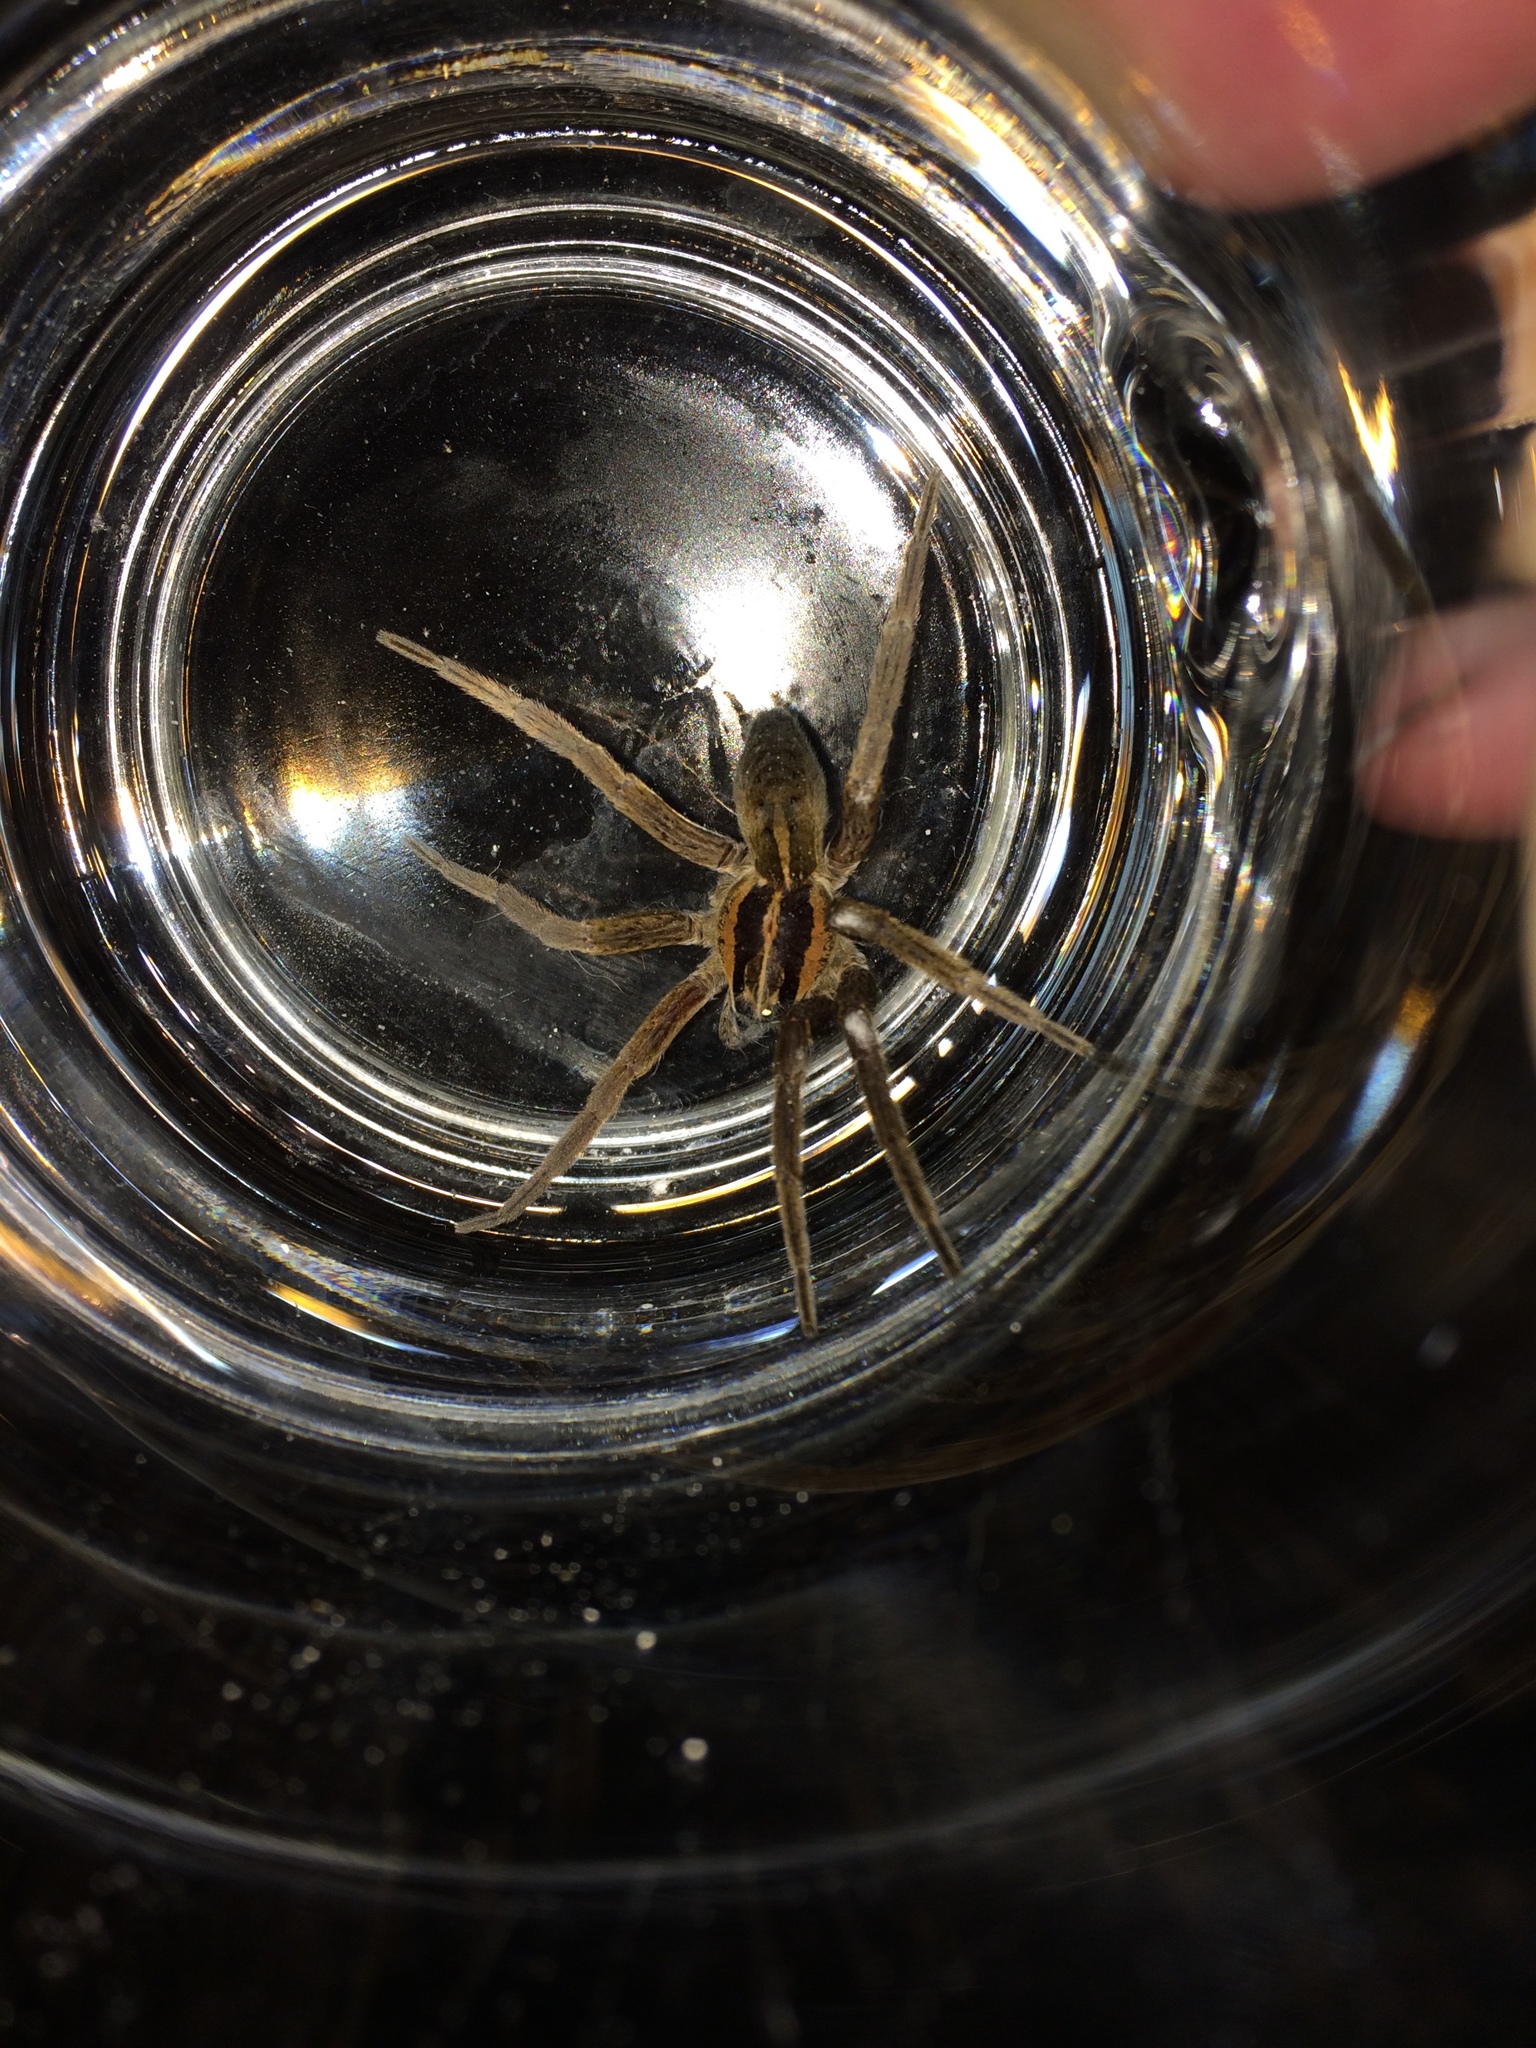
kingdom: Animalia
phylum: Arthropoda
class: Arachnida
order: Araneae
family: Pisauridae
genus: Dolomedes
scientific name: Dolomedes minor
